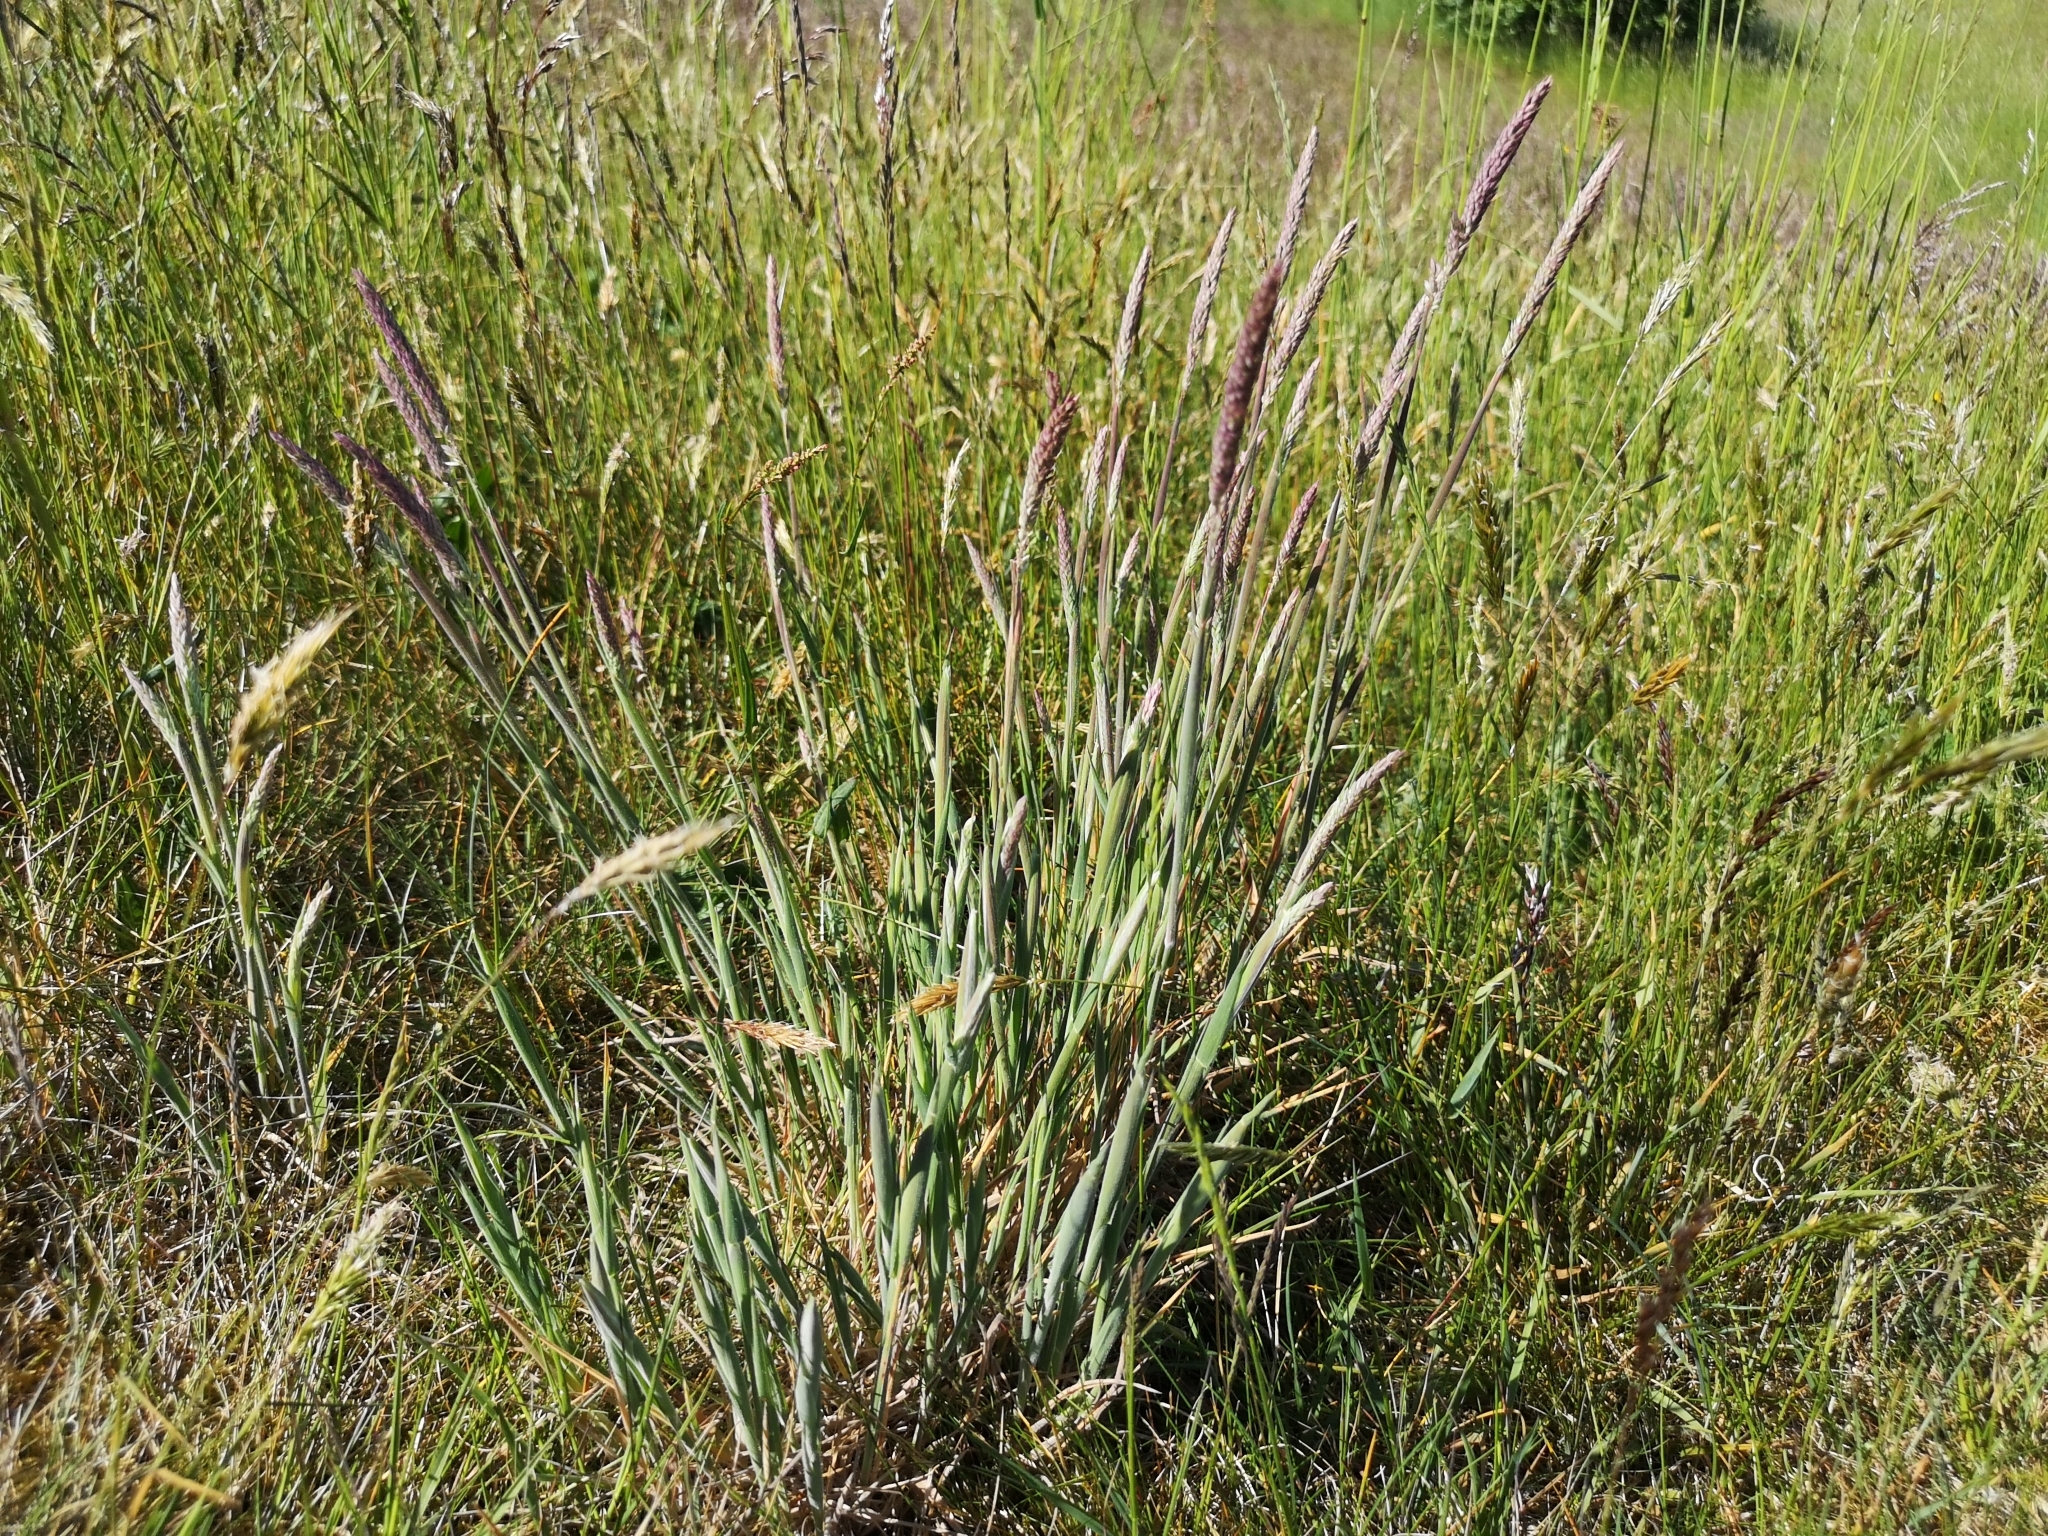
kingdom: Plantae
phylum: Tracheophyta
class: Liliopsida
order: Poales
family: Poaceae
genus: Holcus
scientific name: Holcus lanatus
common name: Yorkshire-fog
